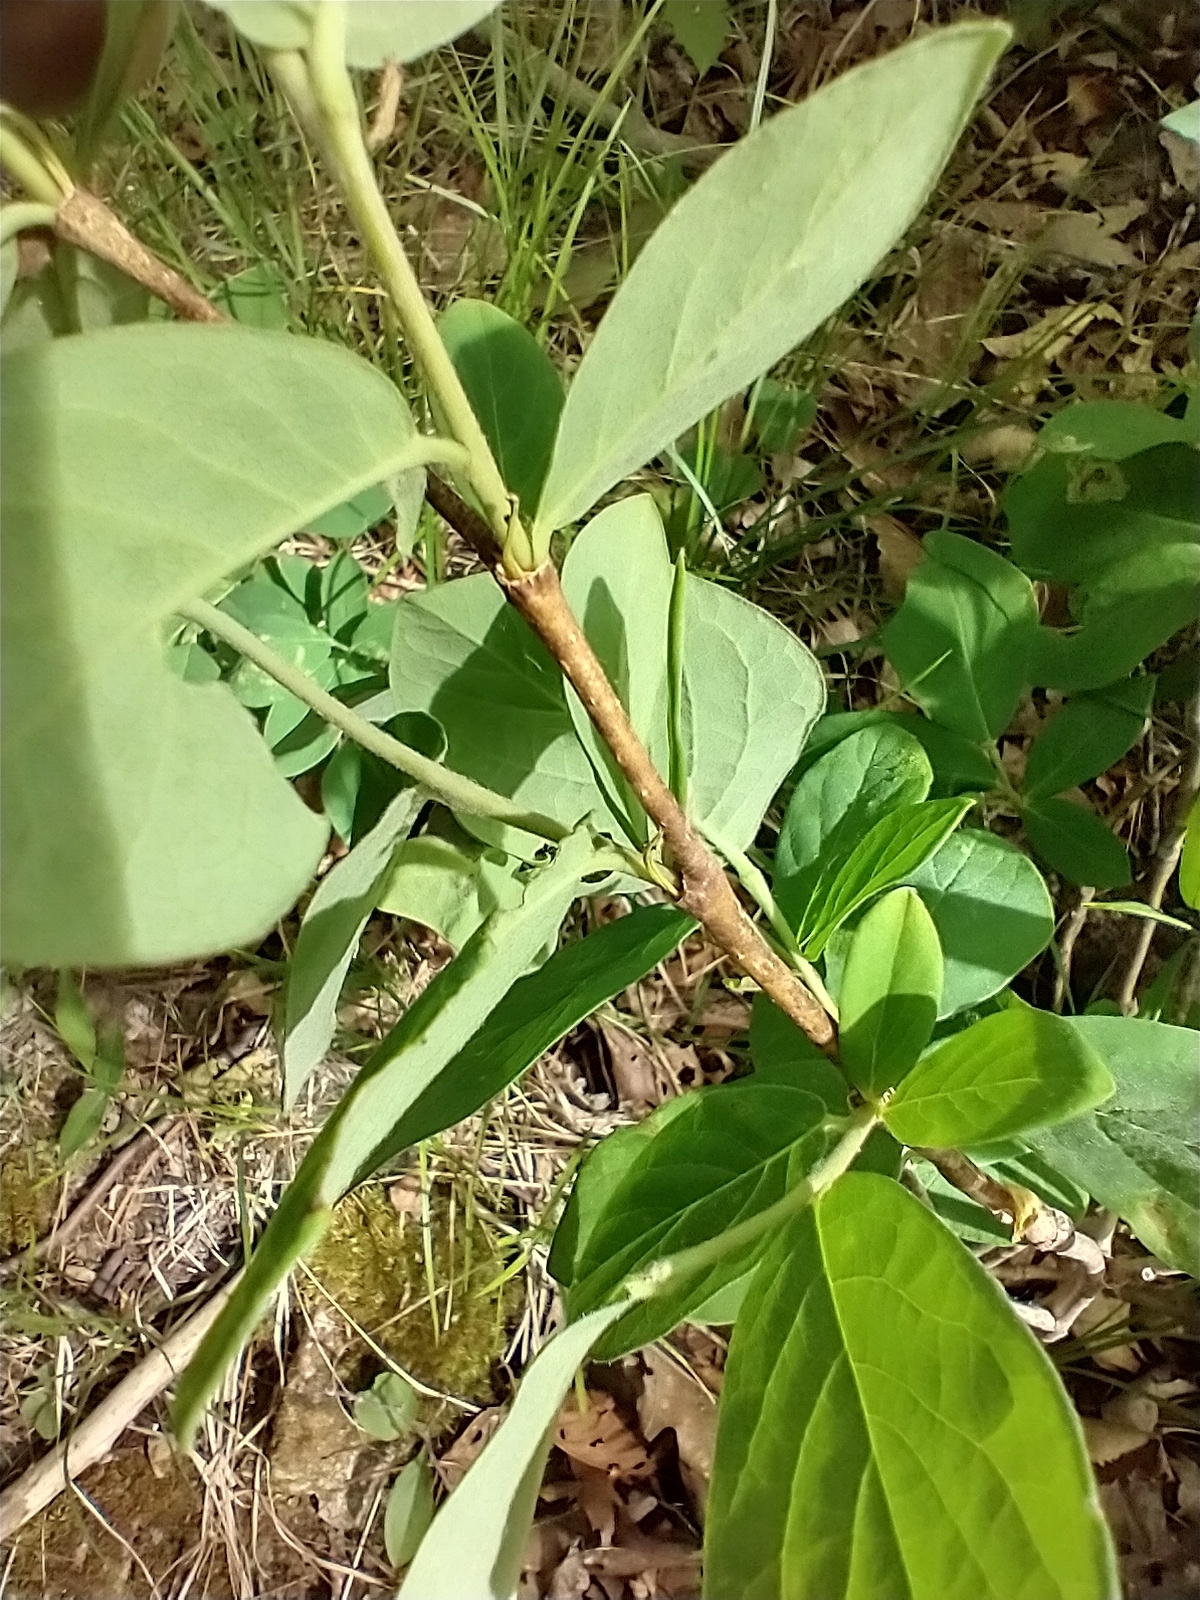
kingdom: Plantae
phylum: Tracheophyta
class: Magnoliopsida
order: Malvales
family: Thymelaeaceae
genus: Dirca
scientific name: Dirca palustris
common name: Leatherwood
